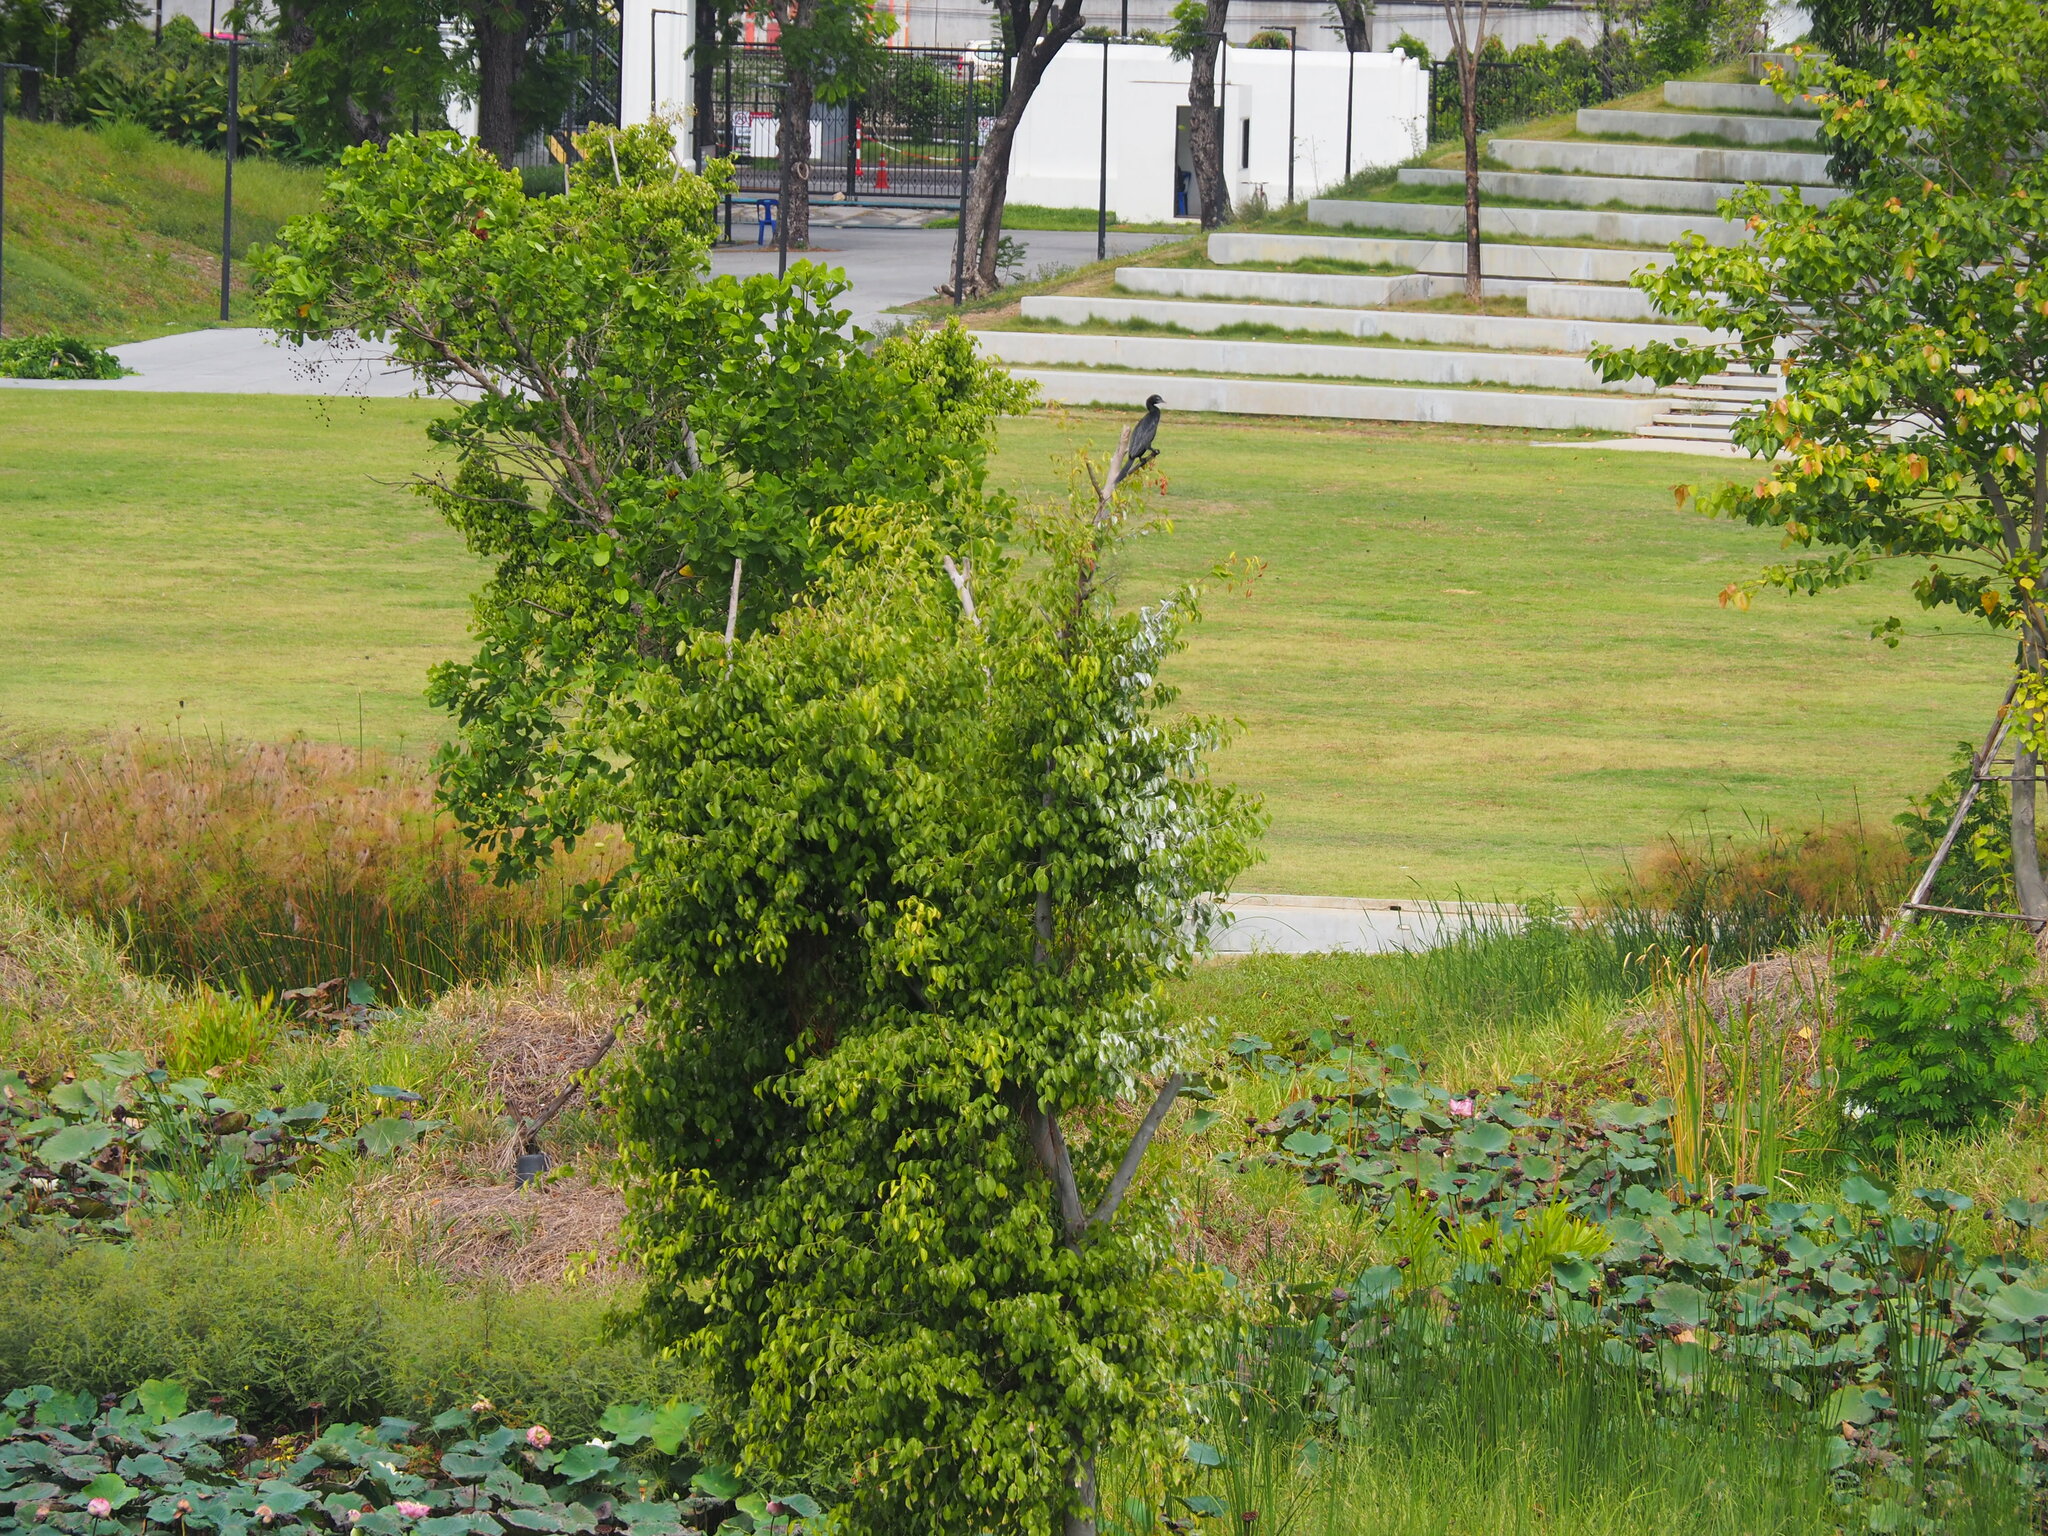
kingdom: Animalia
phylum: Chordata
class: Aves
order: Suliformes
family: Phalacrocoracidae
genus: Microcarbo
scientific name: Microcarbo niger
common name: Little cormorant
